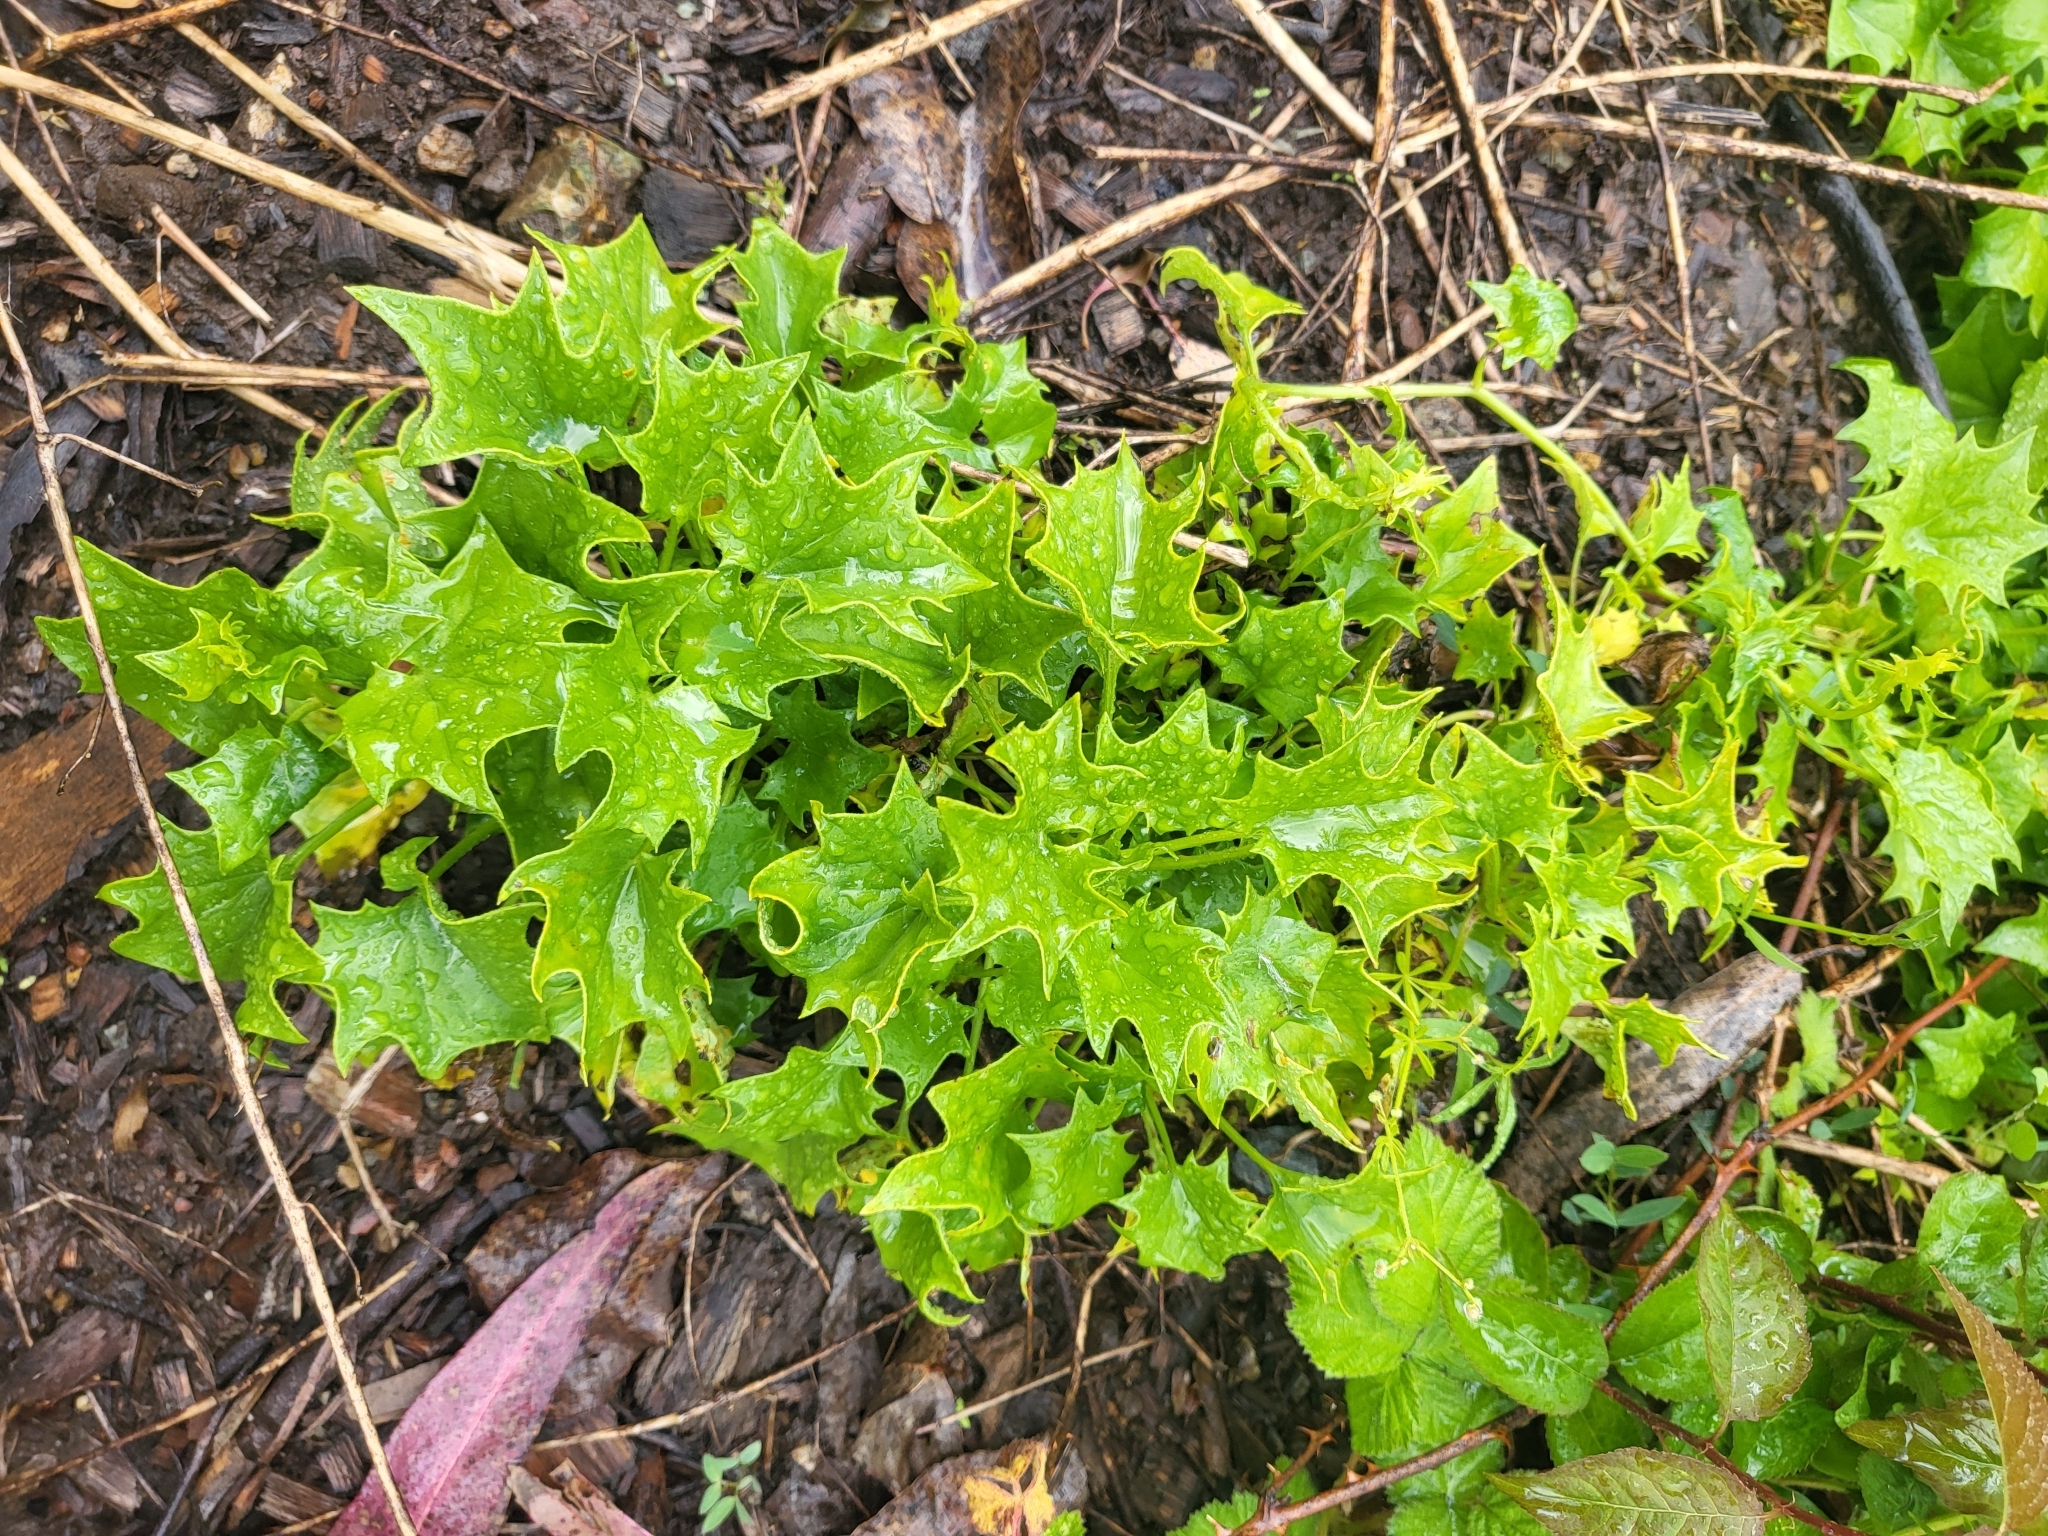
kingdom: Plantae
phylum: Tracheophyta
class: Magnoliopsida
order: Asterales
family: Asteraceae
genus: Delairea
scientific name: Delairea odorata
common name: Cape-ivy
